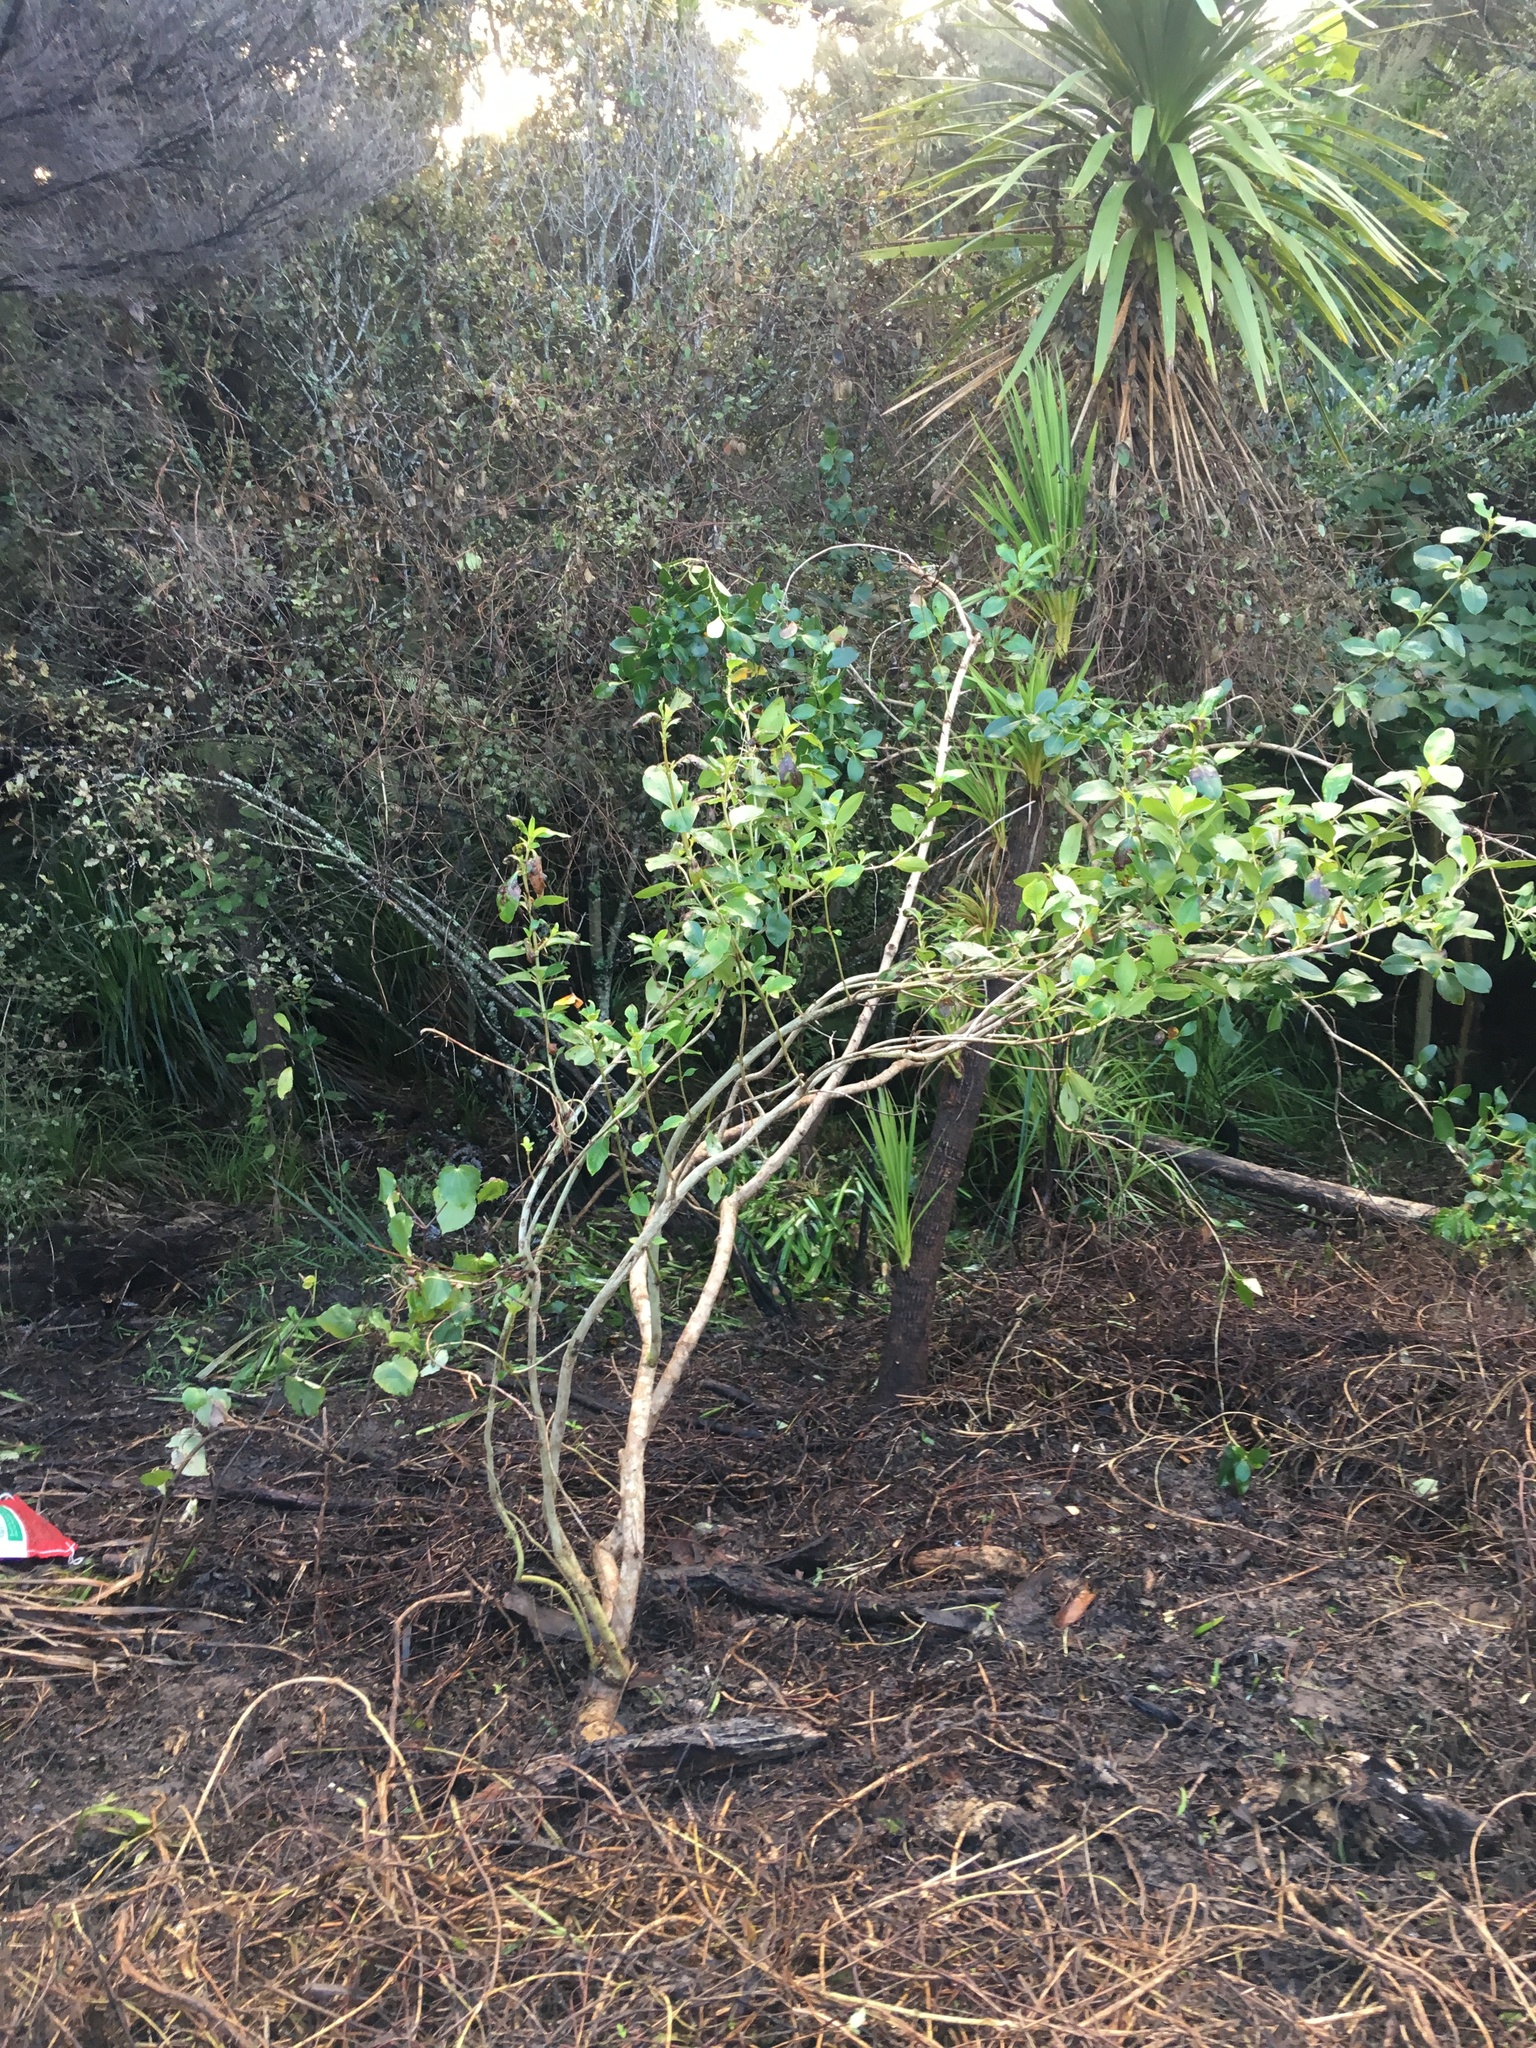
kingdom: Plantae
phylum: Tracheophyta
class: Magnoliopsida
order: Gentianales
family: Rubiaceae
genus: Coprosma
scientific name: Coprosma robusta
